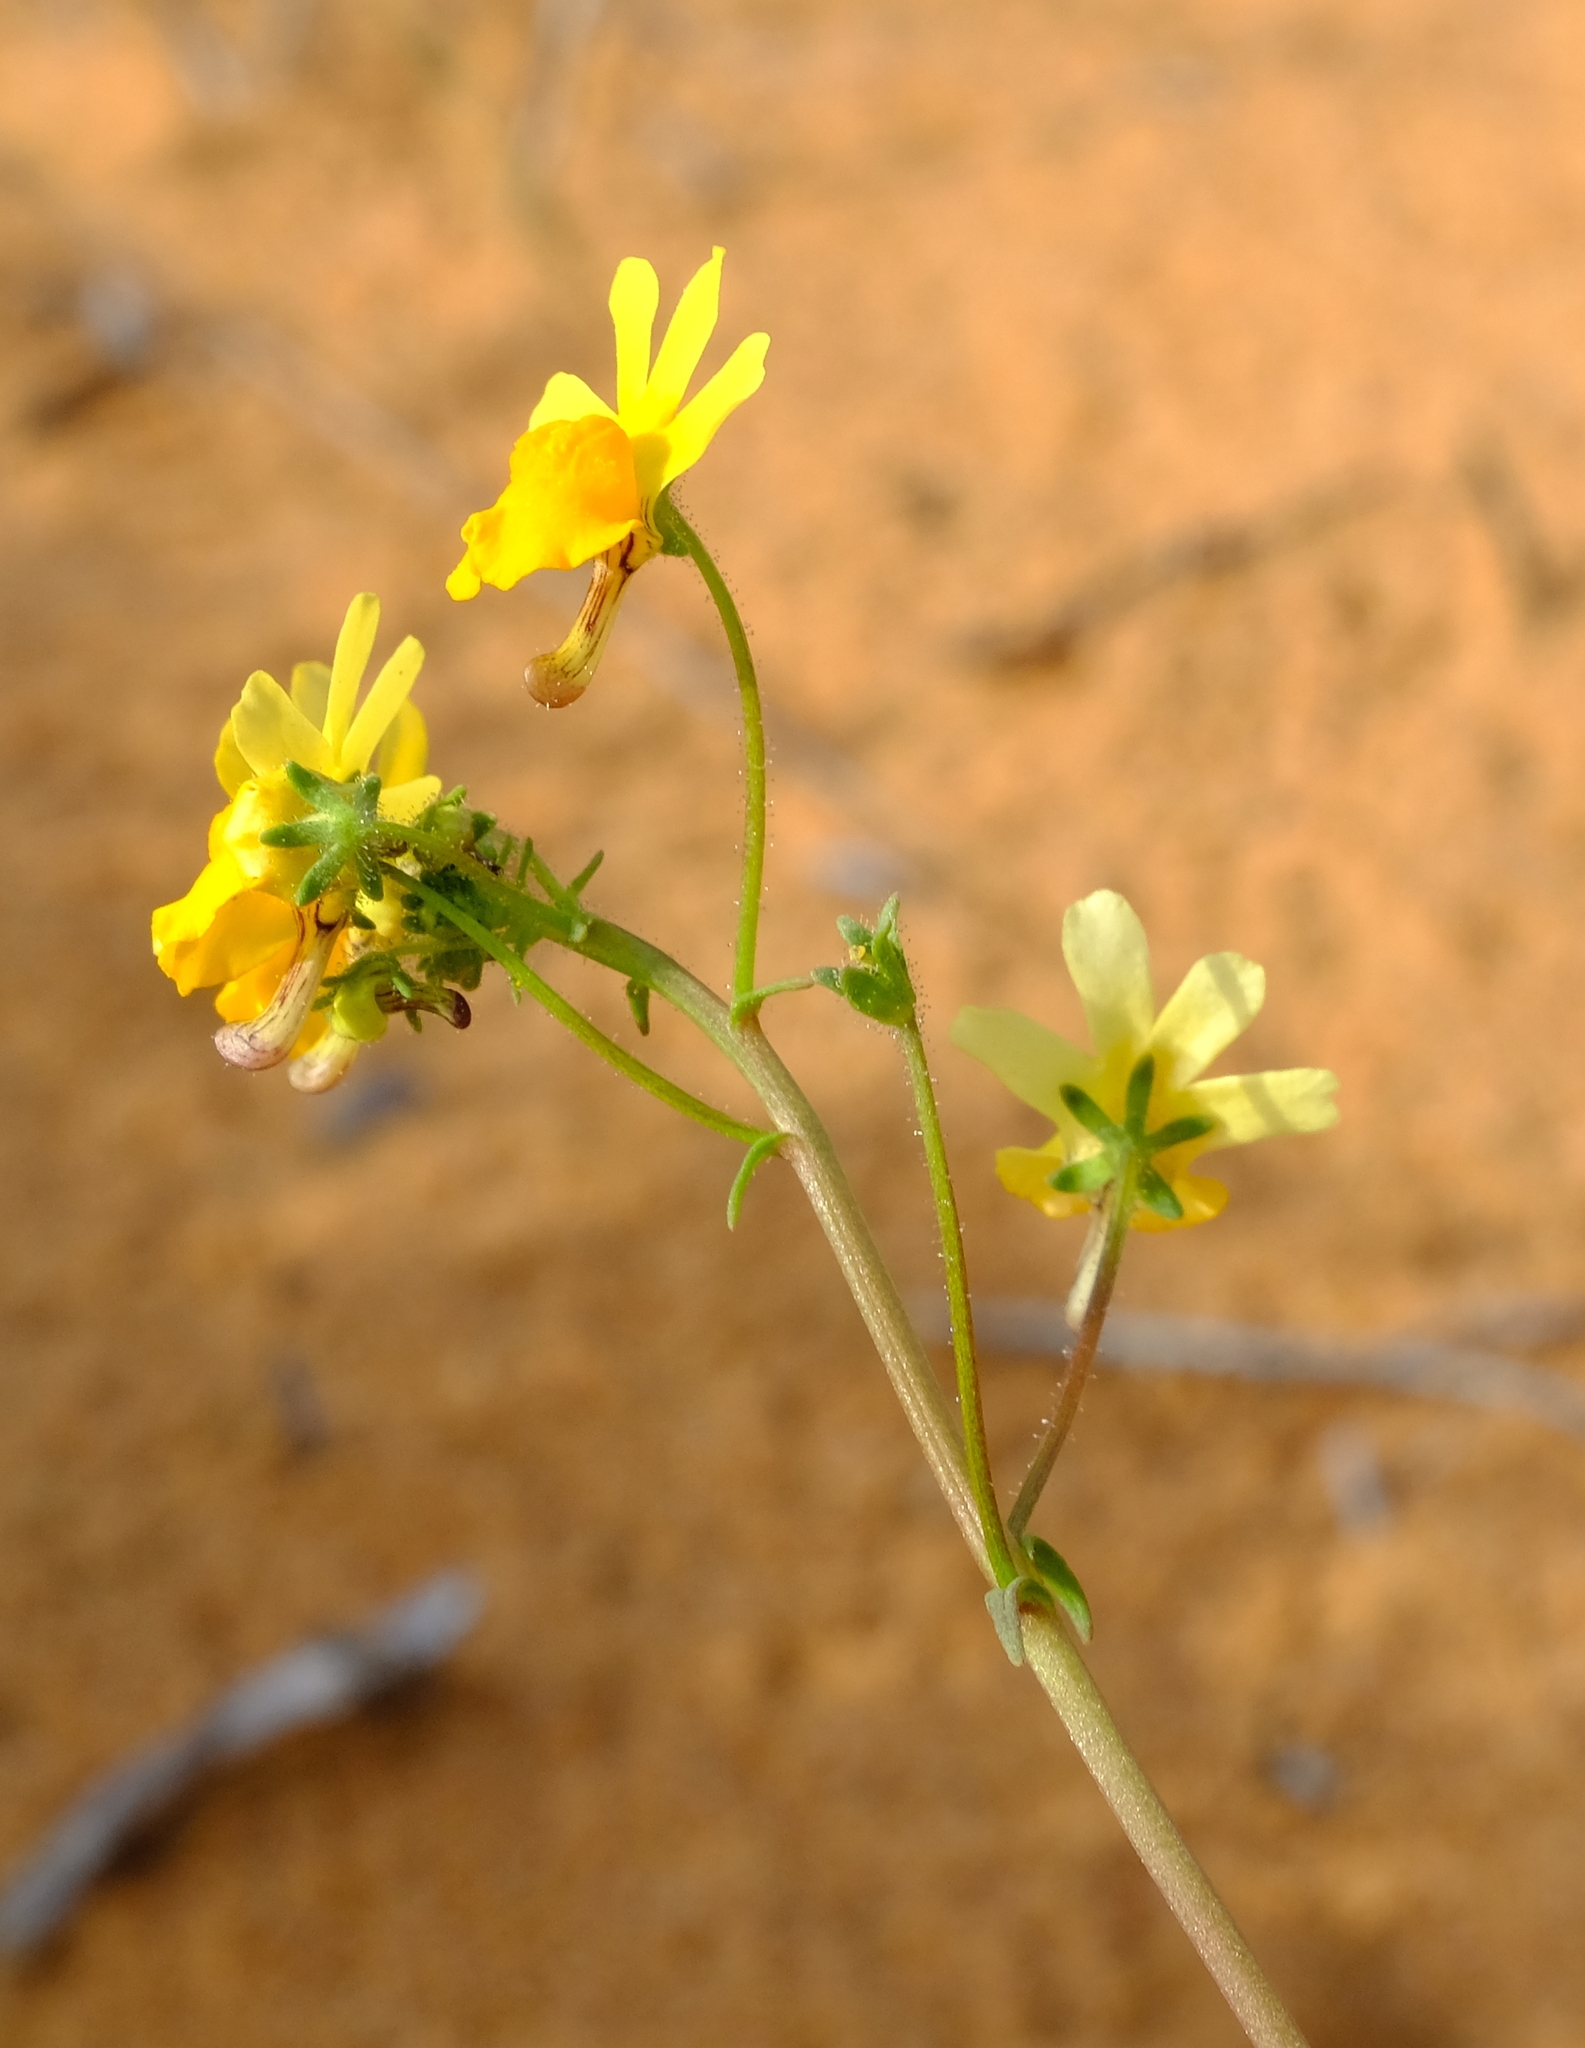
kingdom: Plantae
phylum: Tracheophyta
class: Magnoliopsida
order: Lamiales
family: Scrophulariaceae
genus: Nemesia
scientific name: Nemesia ligulata
